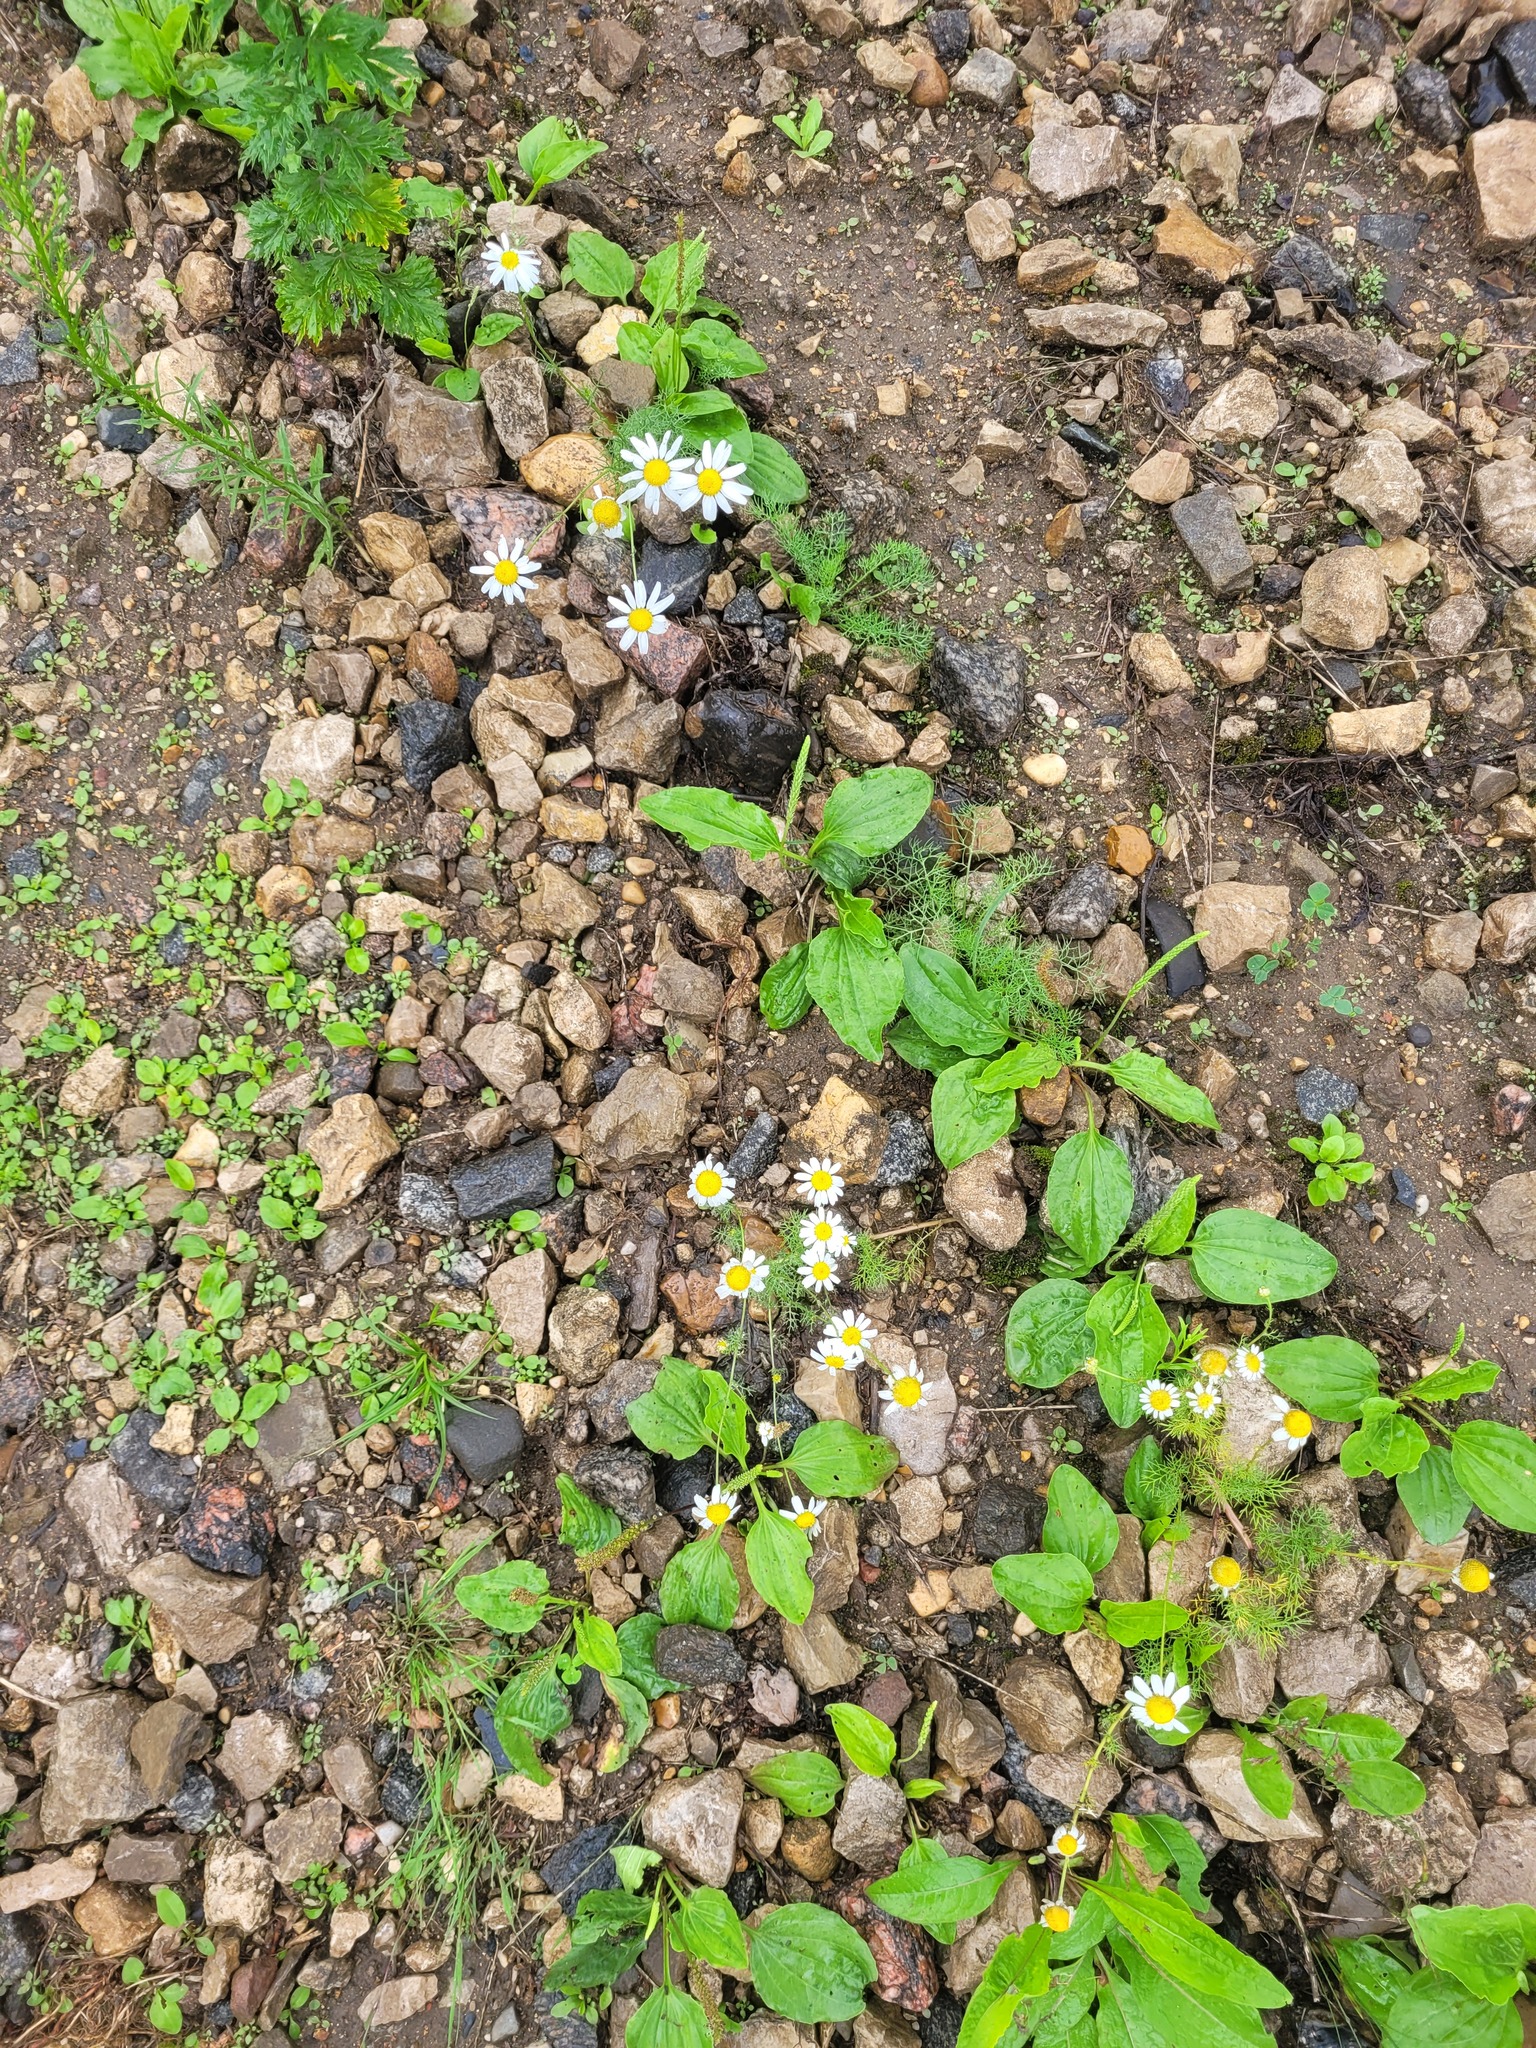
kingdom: Plantae
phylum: Tracheophyta
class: Magnoliopsida
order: Asterales
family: Asteraceae
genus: Tripleurospermum
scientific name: Tripleurospermum inodorum
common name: Scentless mayweed
